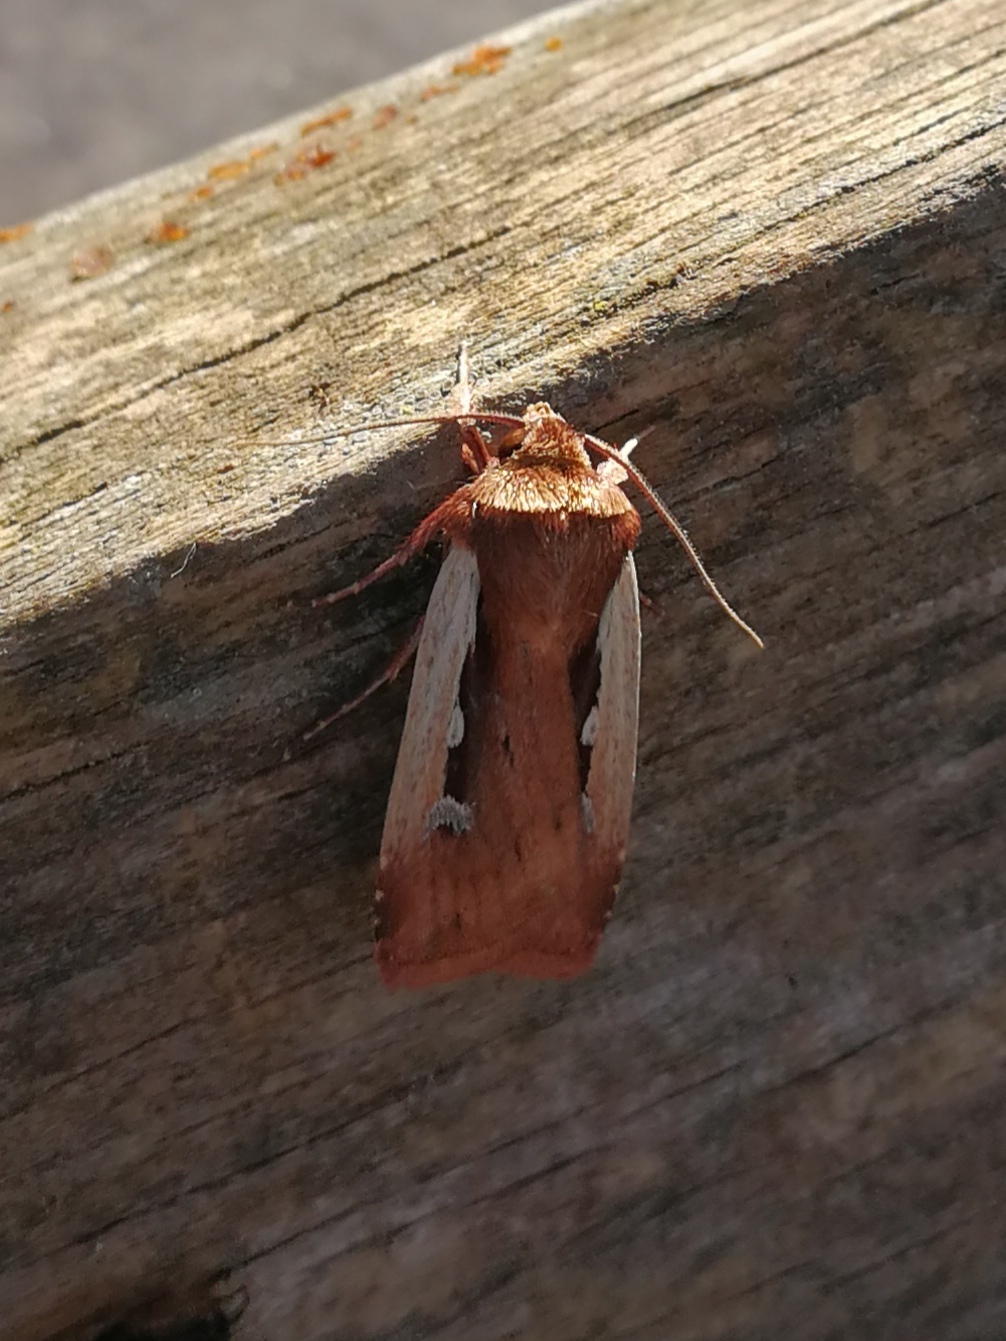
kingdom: Animalia
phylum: Arthropoda
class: Insecta
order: Lepidoptera
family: Noctuidae
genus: Ochropleura
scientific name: Ochropleura plecta
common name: Flame shoulder
